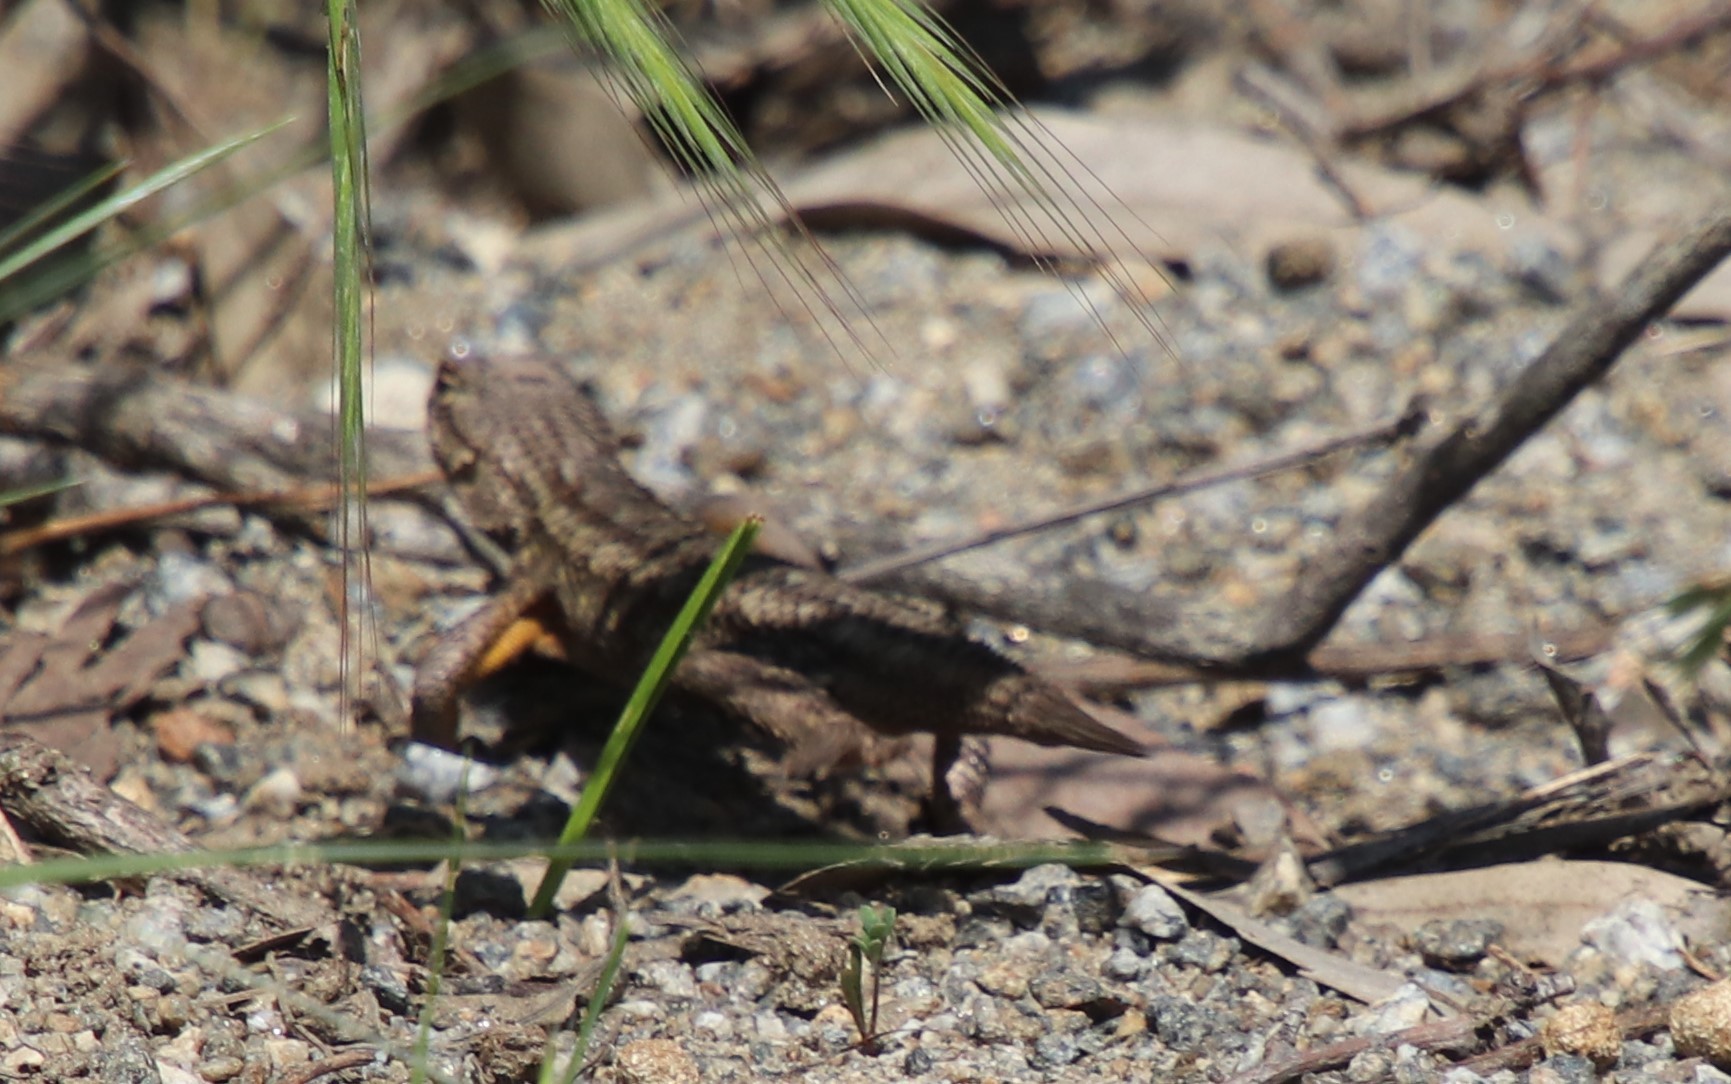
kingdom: Animalia
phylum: Chordata
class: Squamata
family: Phrynosomatidae
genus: Sceloporus
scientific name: Sceloporus occidentalis
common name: Western fence lizard
